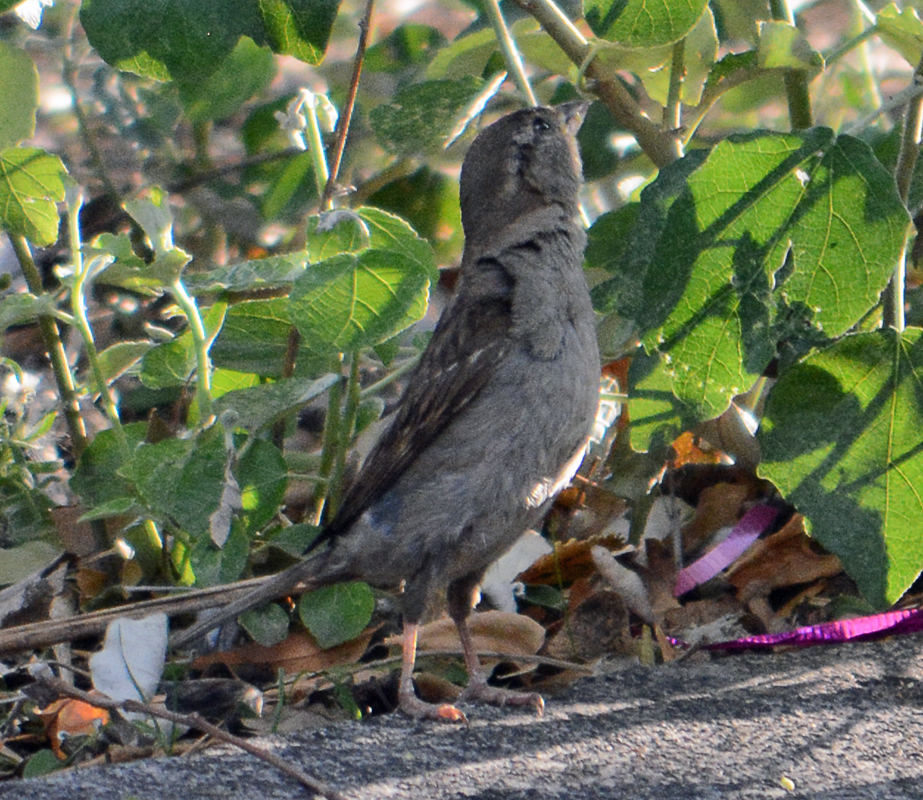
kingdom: Animalia
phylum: Chordata
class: Aves
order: Passeriformes
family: Passeridae
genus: Passer
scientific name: Passer domesticus
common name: House sparrow
